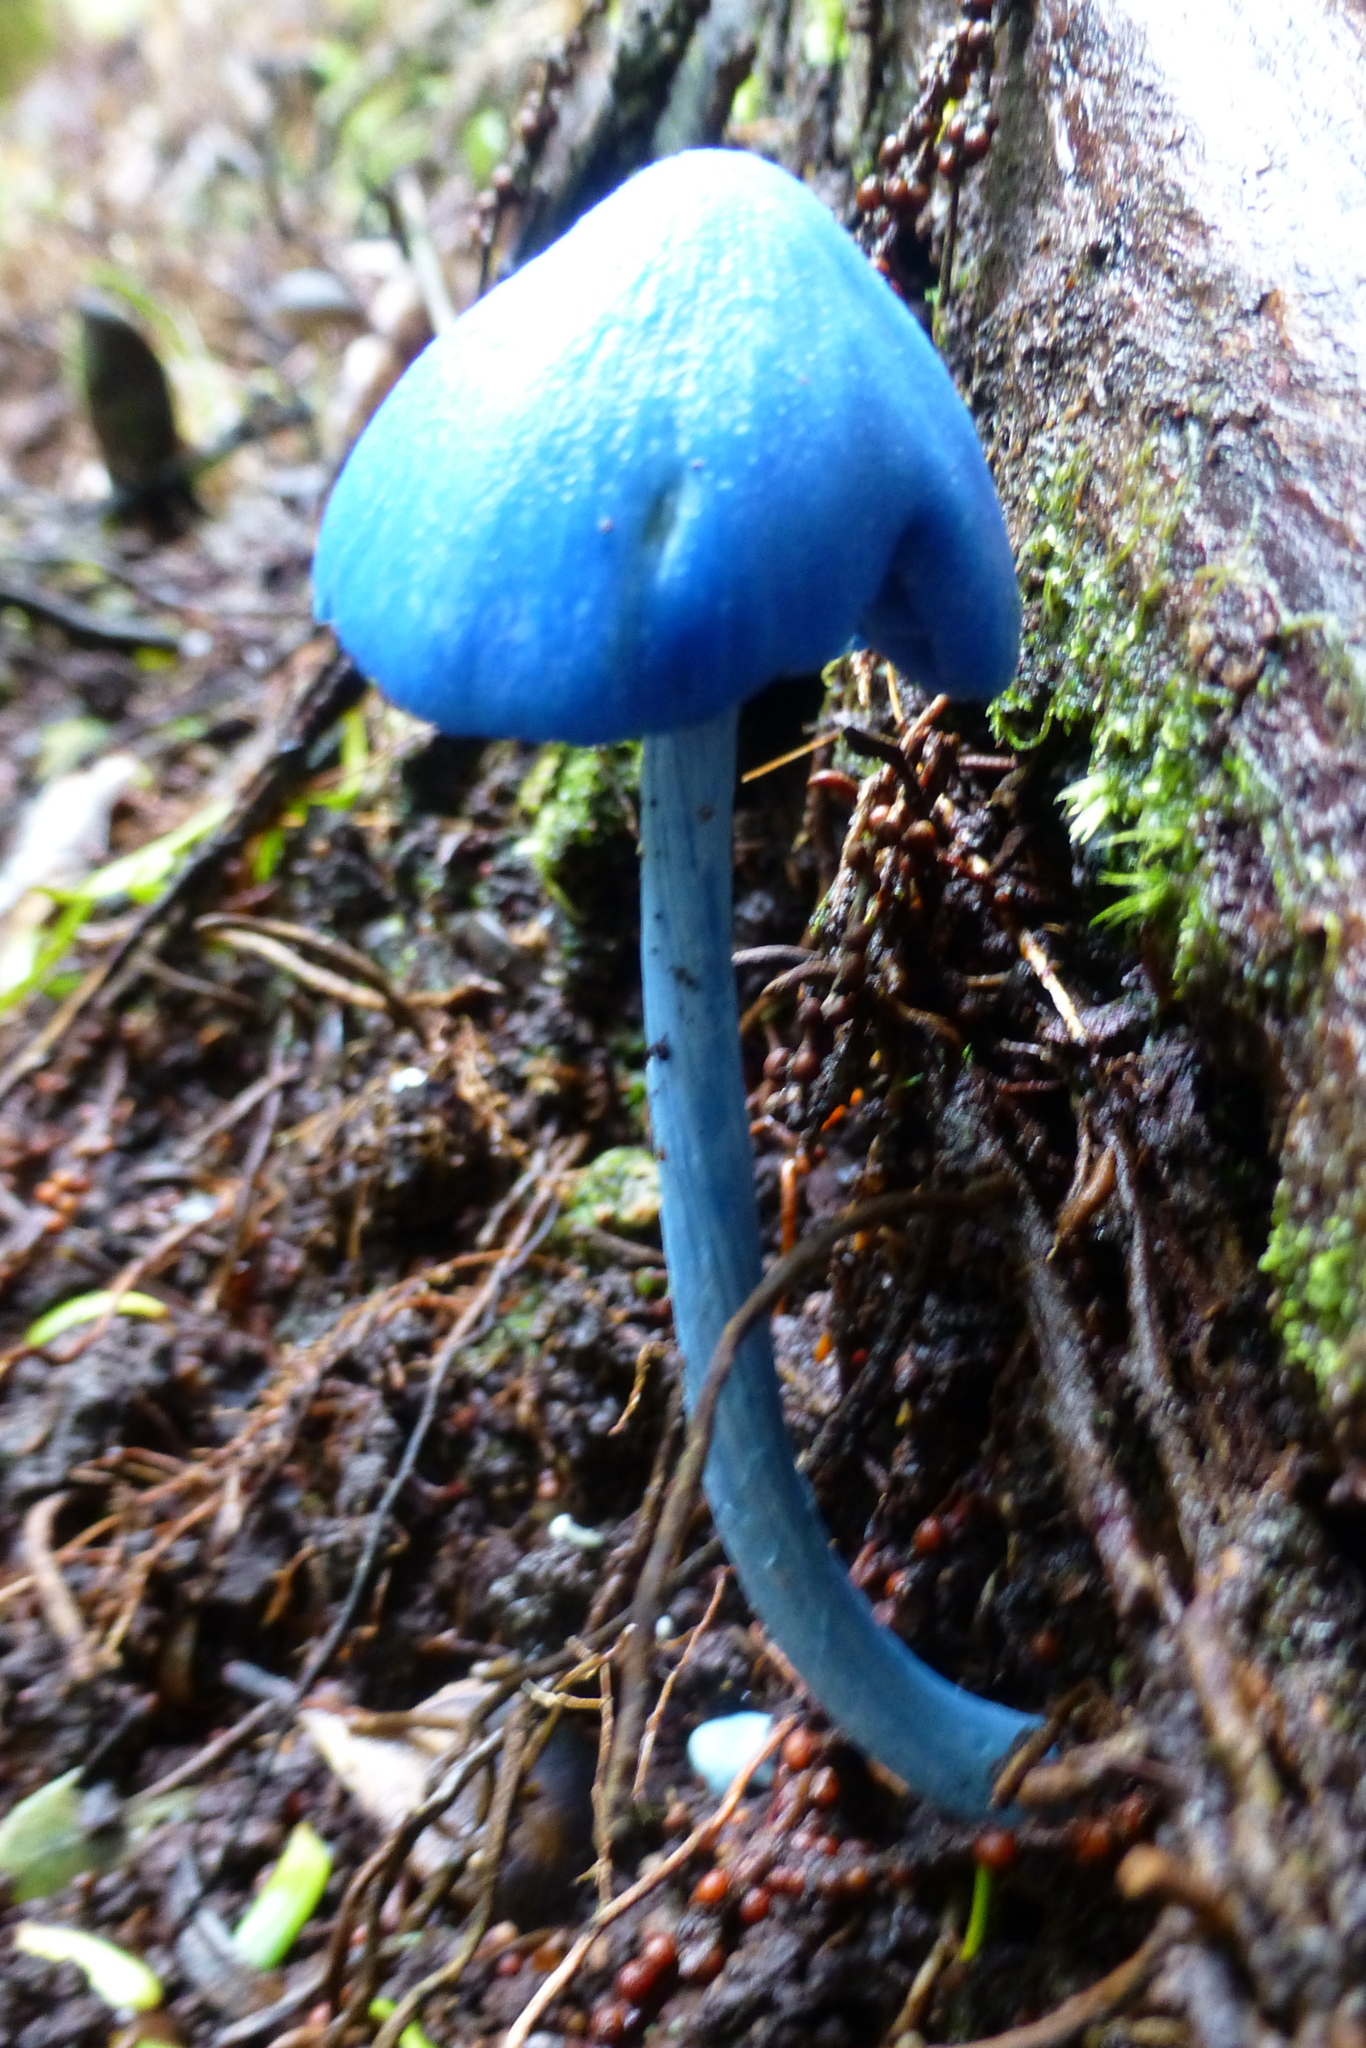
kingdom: Fungi
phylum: Basidiomycota
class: Agaricomycetes
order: Agaricales
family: Entolomataceae
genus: Entoloma
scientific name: Entoloma hochstetteri
